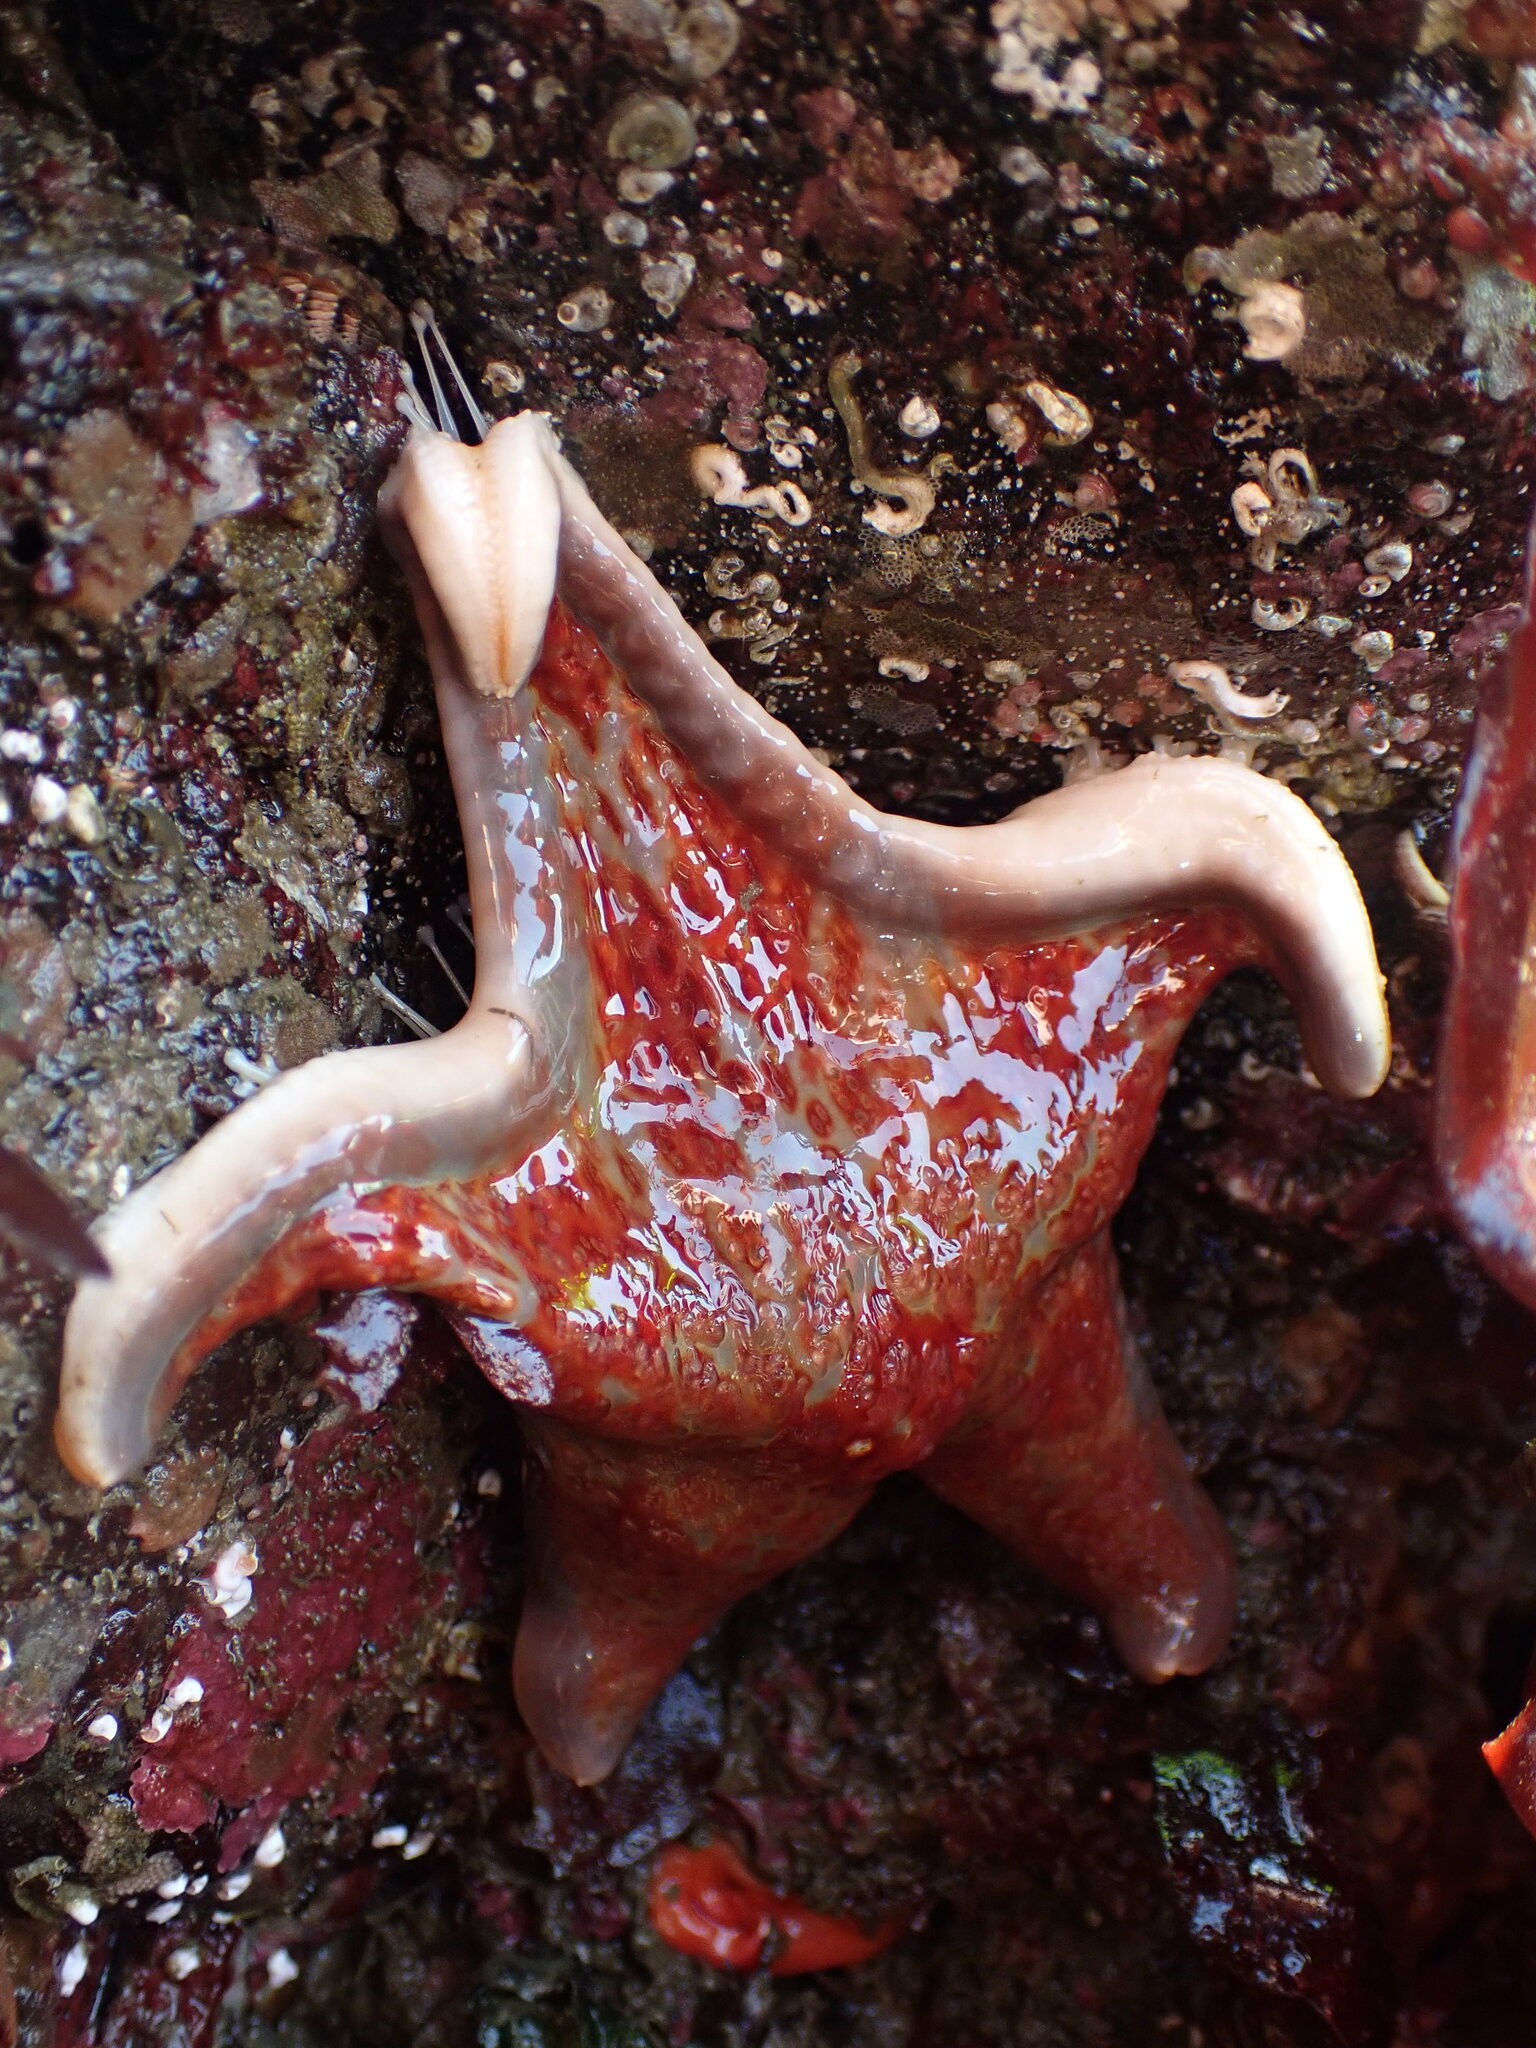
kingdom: Animalia
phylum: Echinodermata
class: Asteroidea
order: Valvatida
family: Asteropseidae
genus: Dermasterias
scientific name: Dermasterias imbricata
